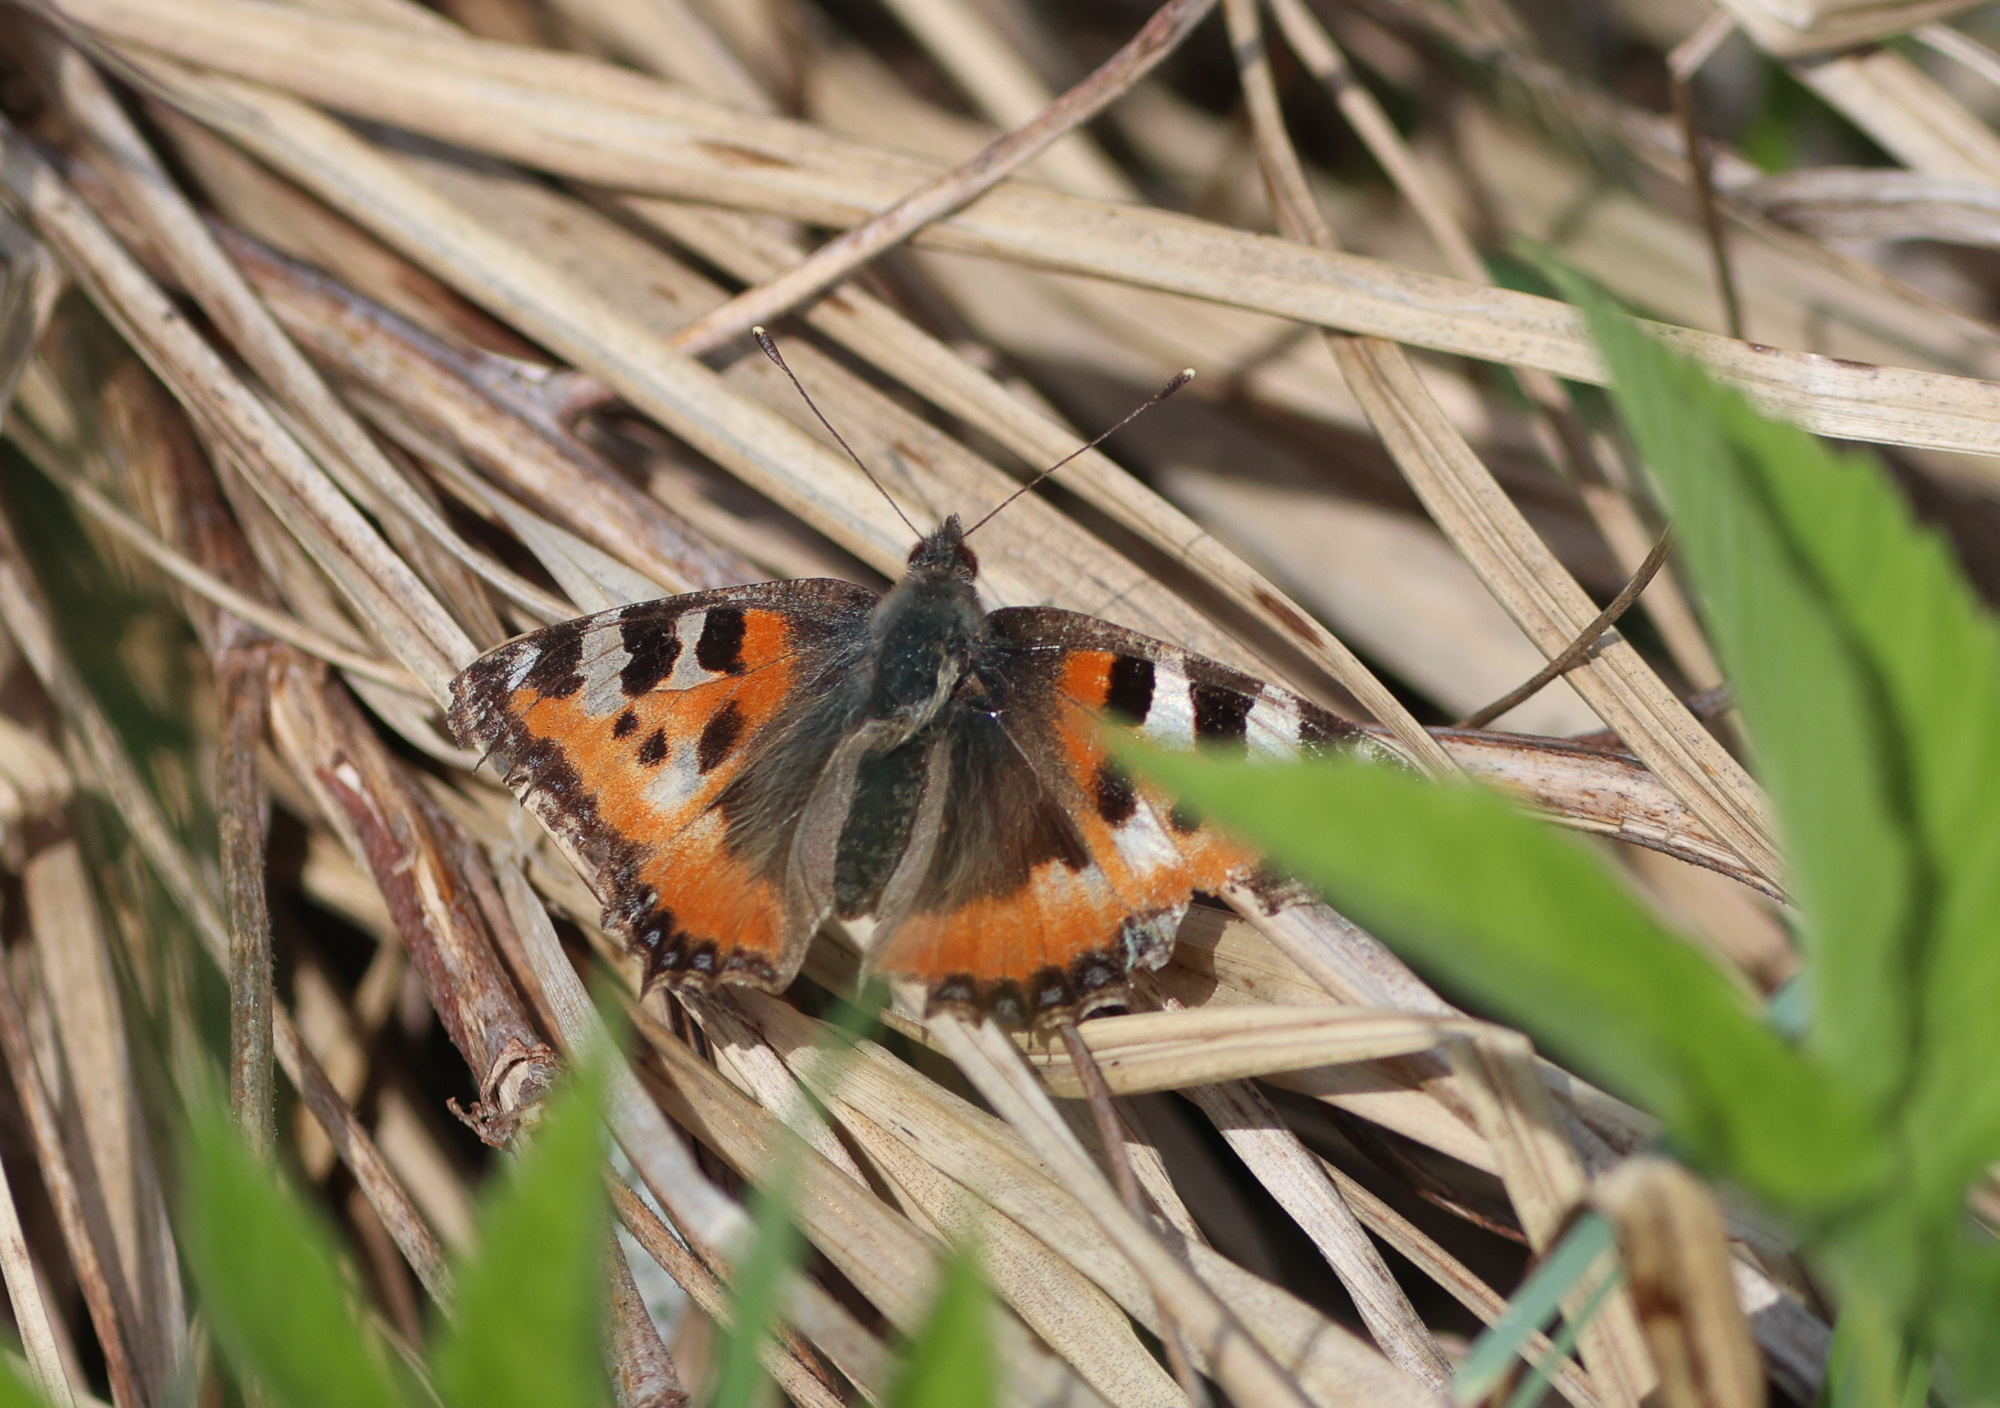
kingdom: Animalia
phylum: Arthropoda
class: Insecta
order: Lepidoptera
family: Nymphalidae
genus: Aglais
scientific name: Aglais urticae
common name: Small tortoiseshell
